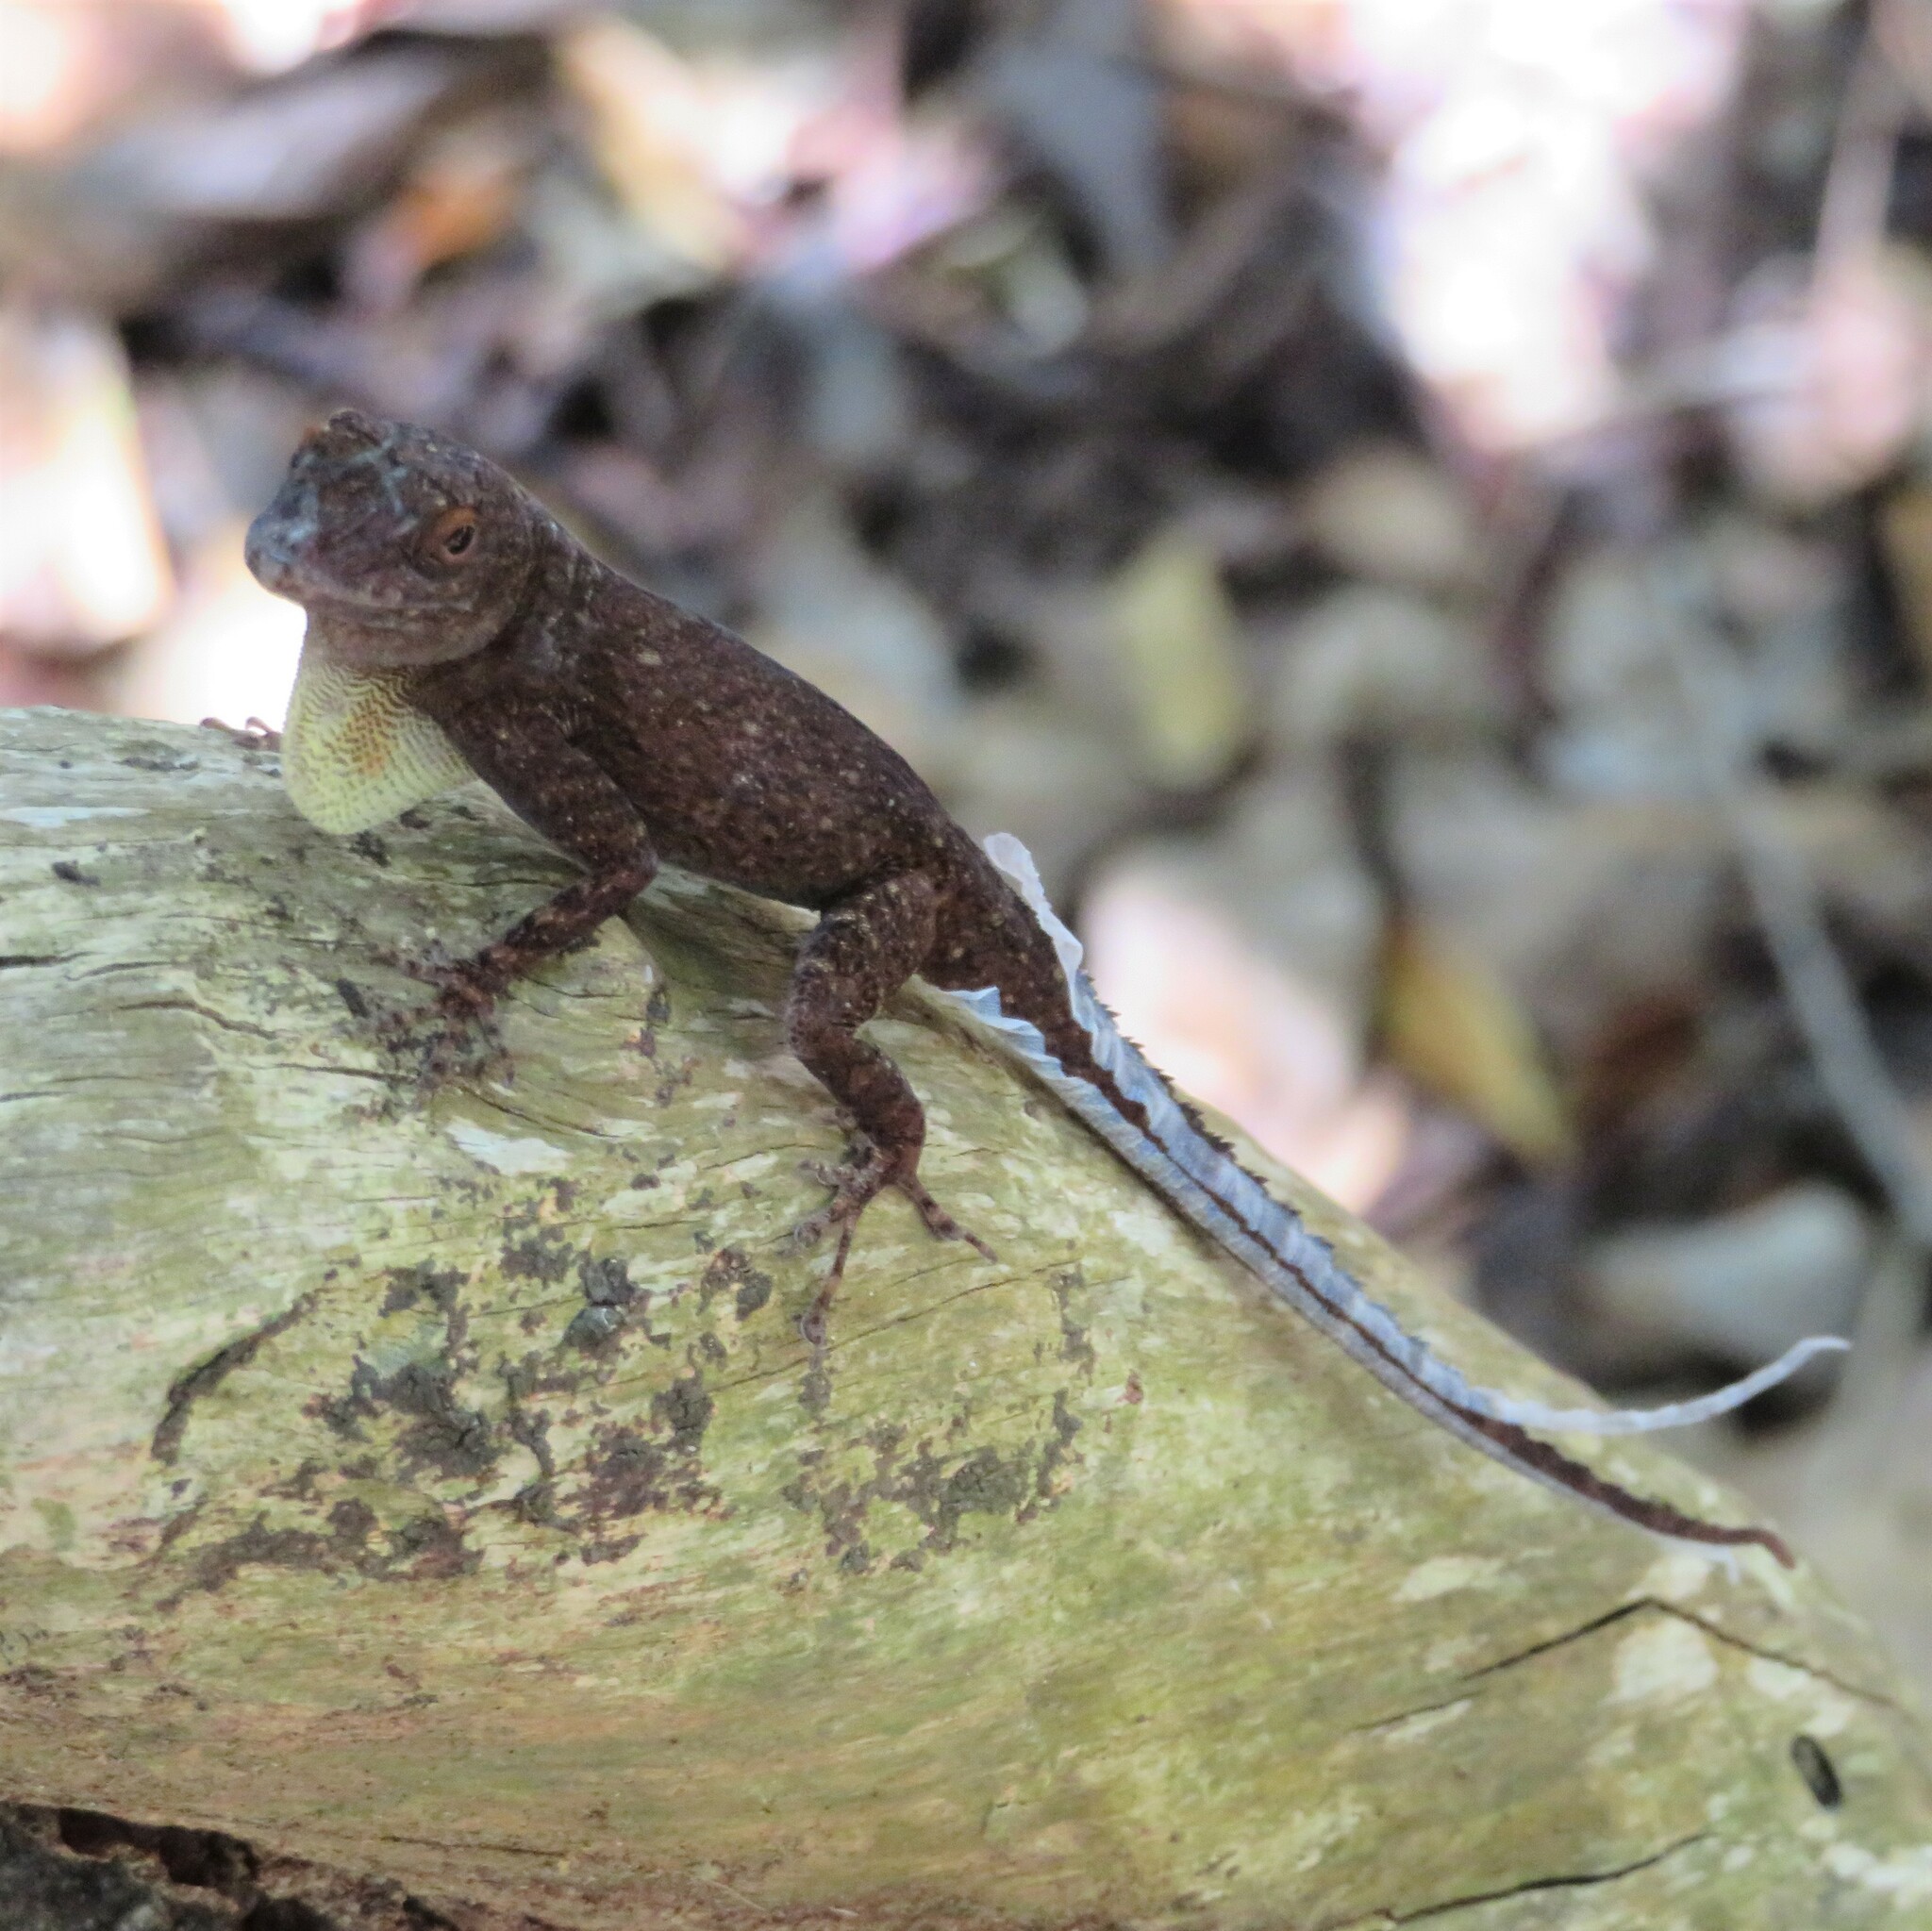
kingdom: Animalia
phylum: Chordata
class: Squamata
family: Dactyloidae
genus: Anolis
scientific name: Anolis distichus
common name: Bark anole
